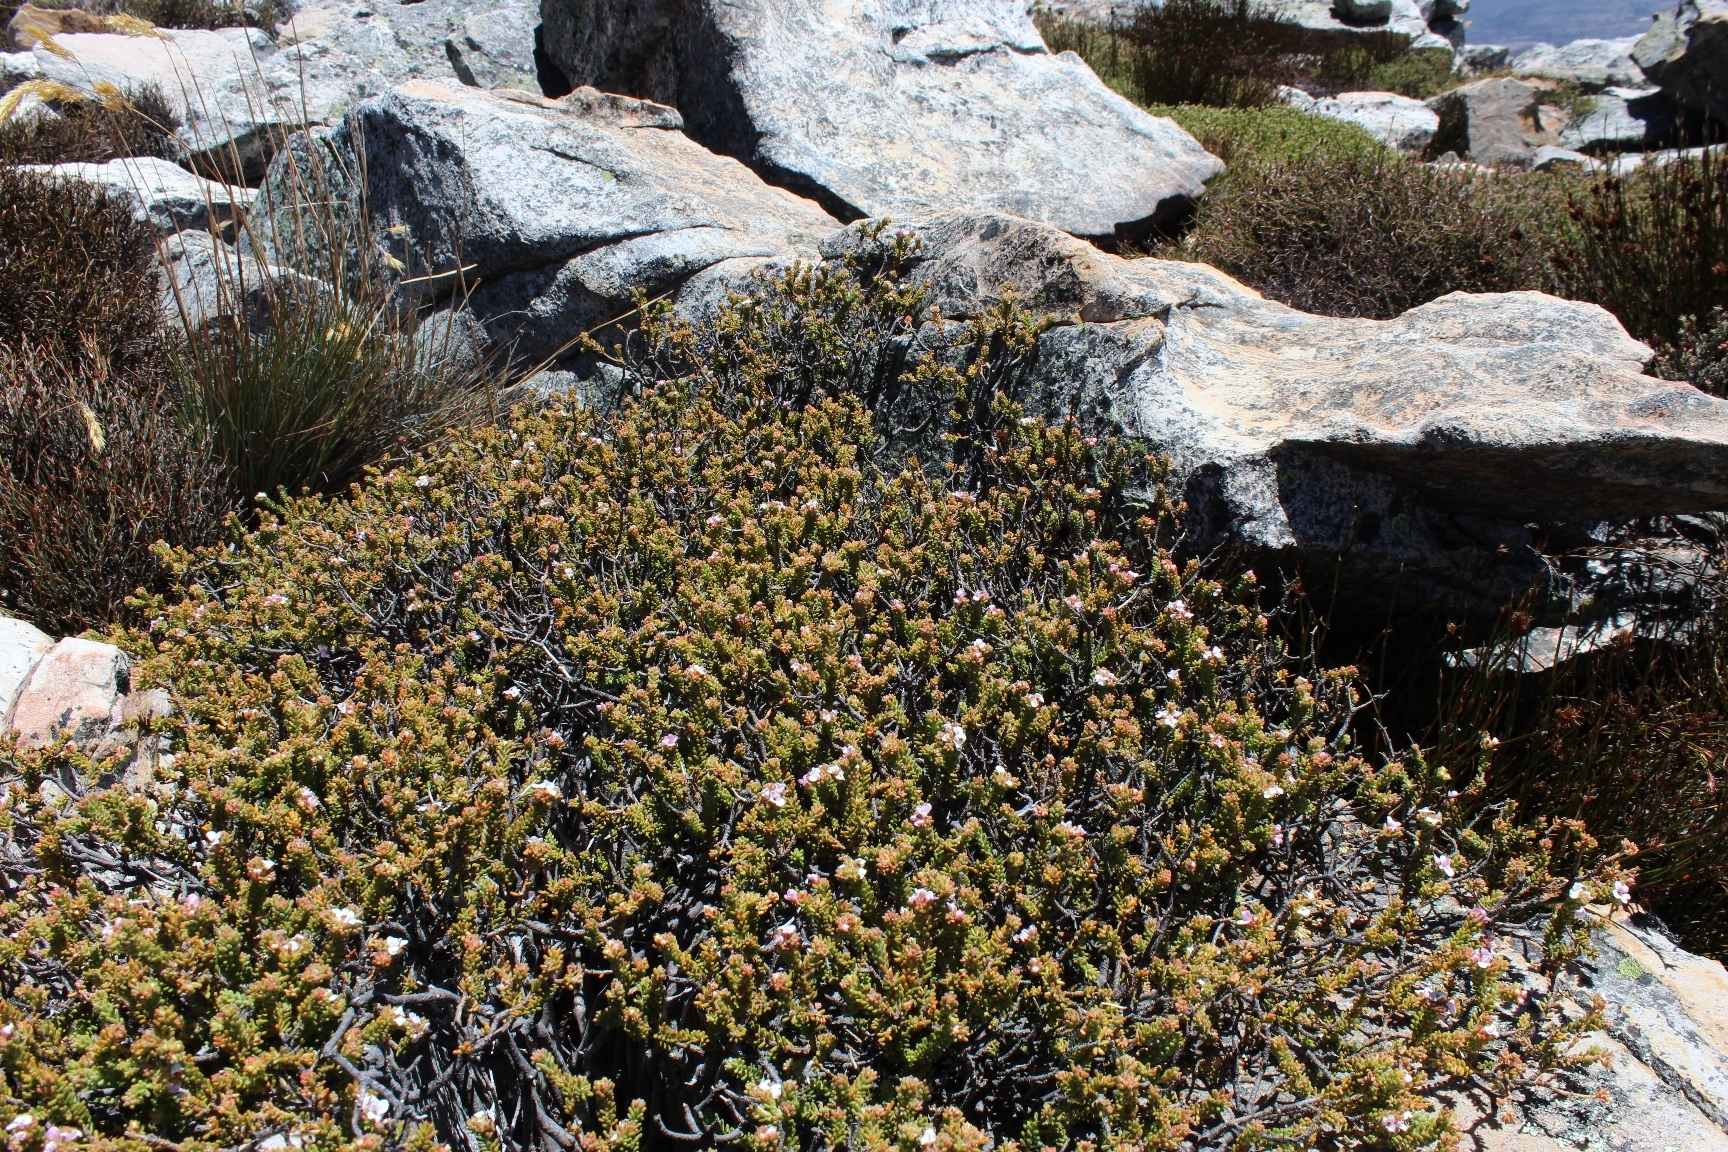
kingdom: Plantae
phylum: Tracheophyta
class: Magnoliopsida
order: Sapindales
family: Rutaceae
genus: Acmadenia
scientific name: Acmadenia teretifolia
